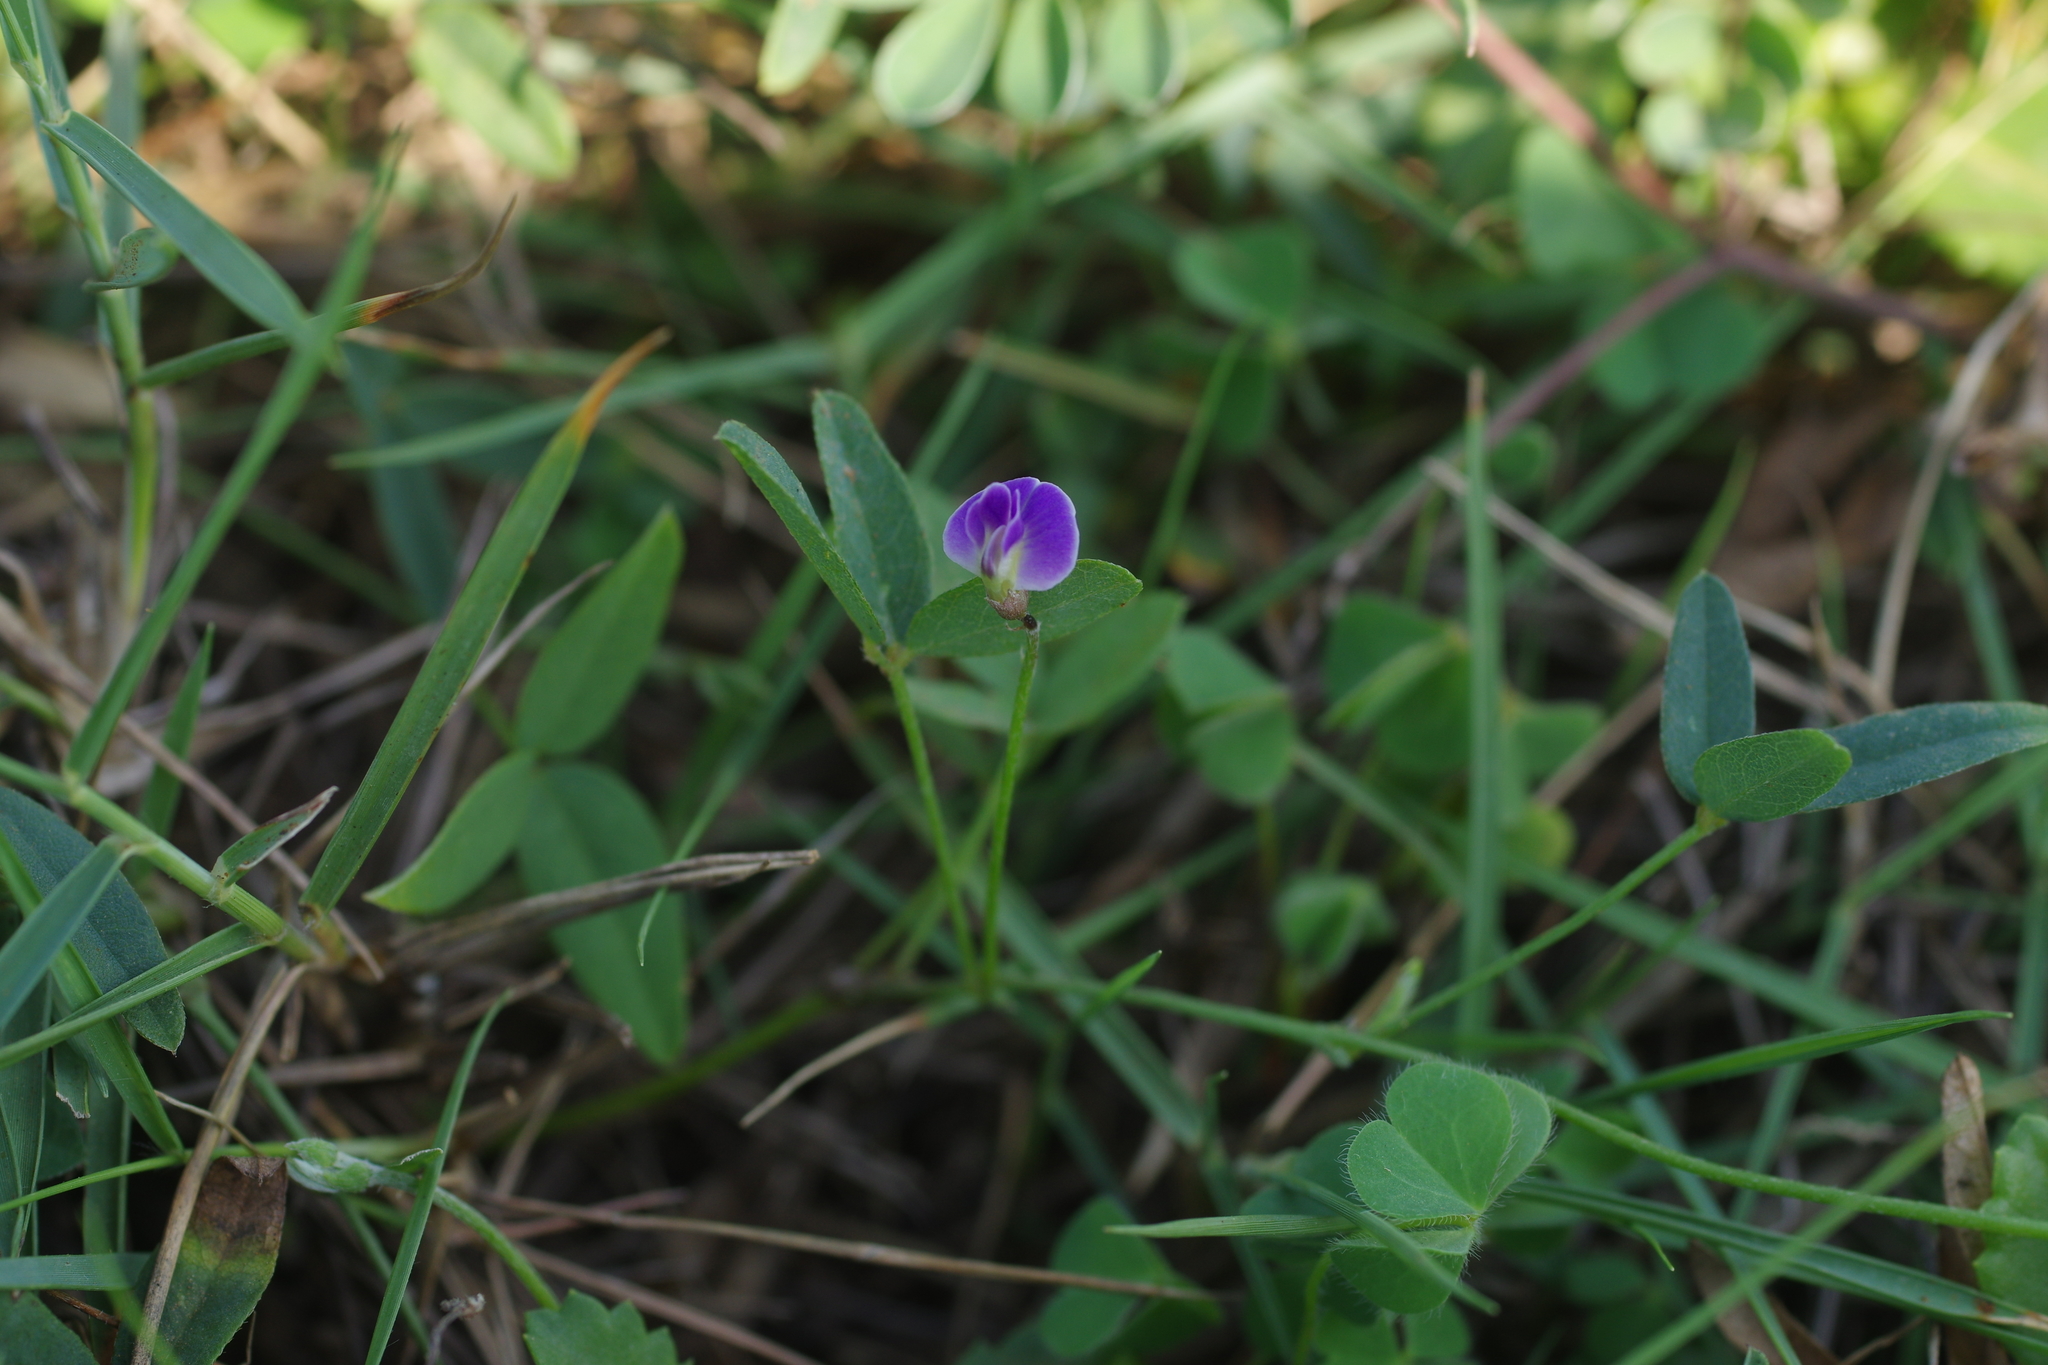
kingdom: Plantae
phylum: Tracheophyta
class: Magnoliopsida
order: Fabales
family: Fabaceae
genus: Glycine
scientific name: Glycine tabacina
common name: Pea glycine
